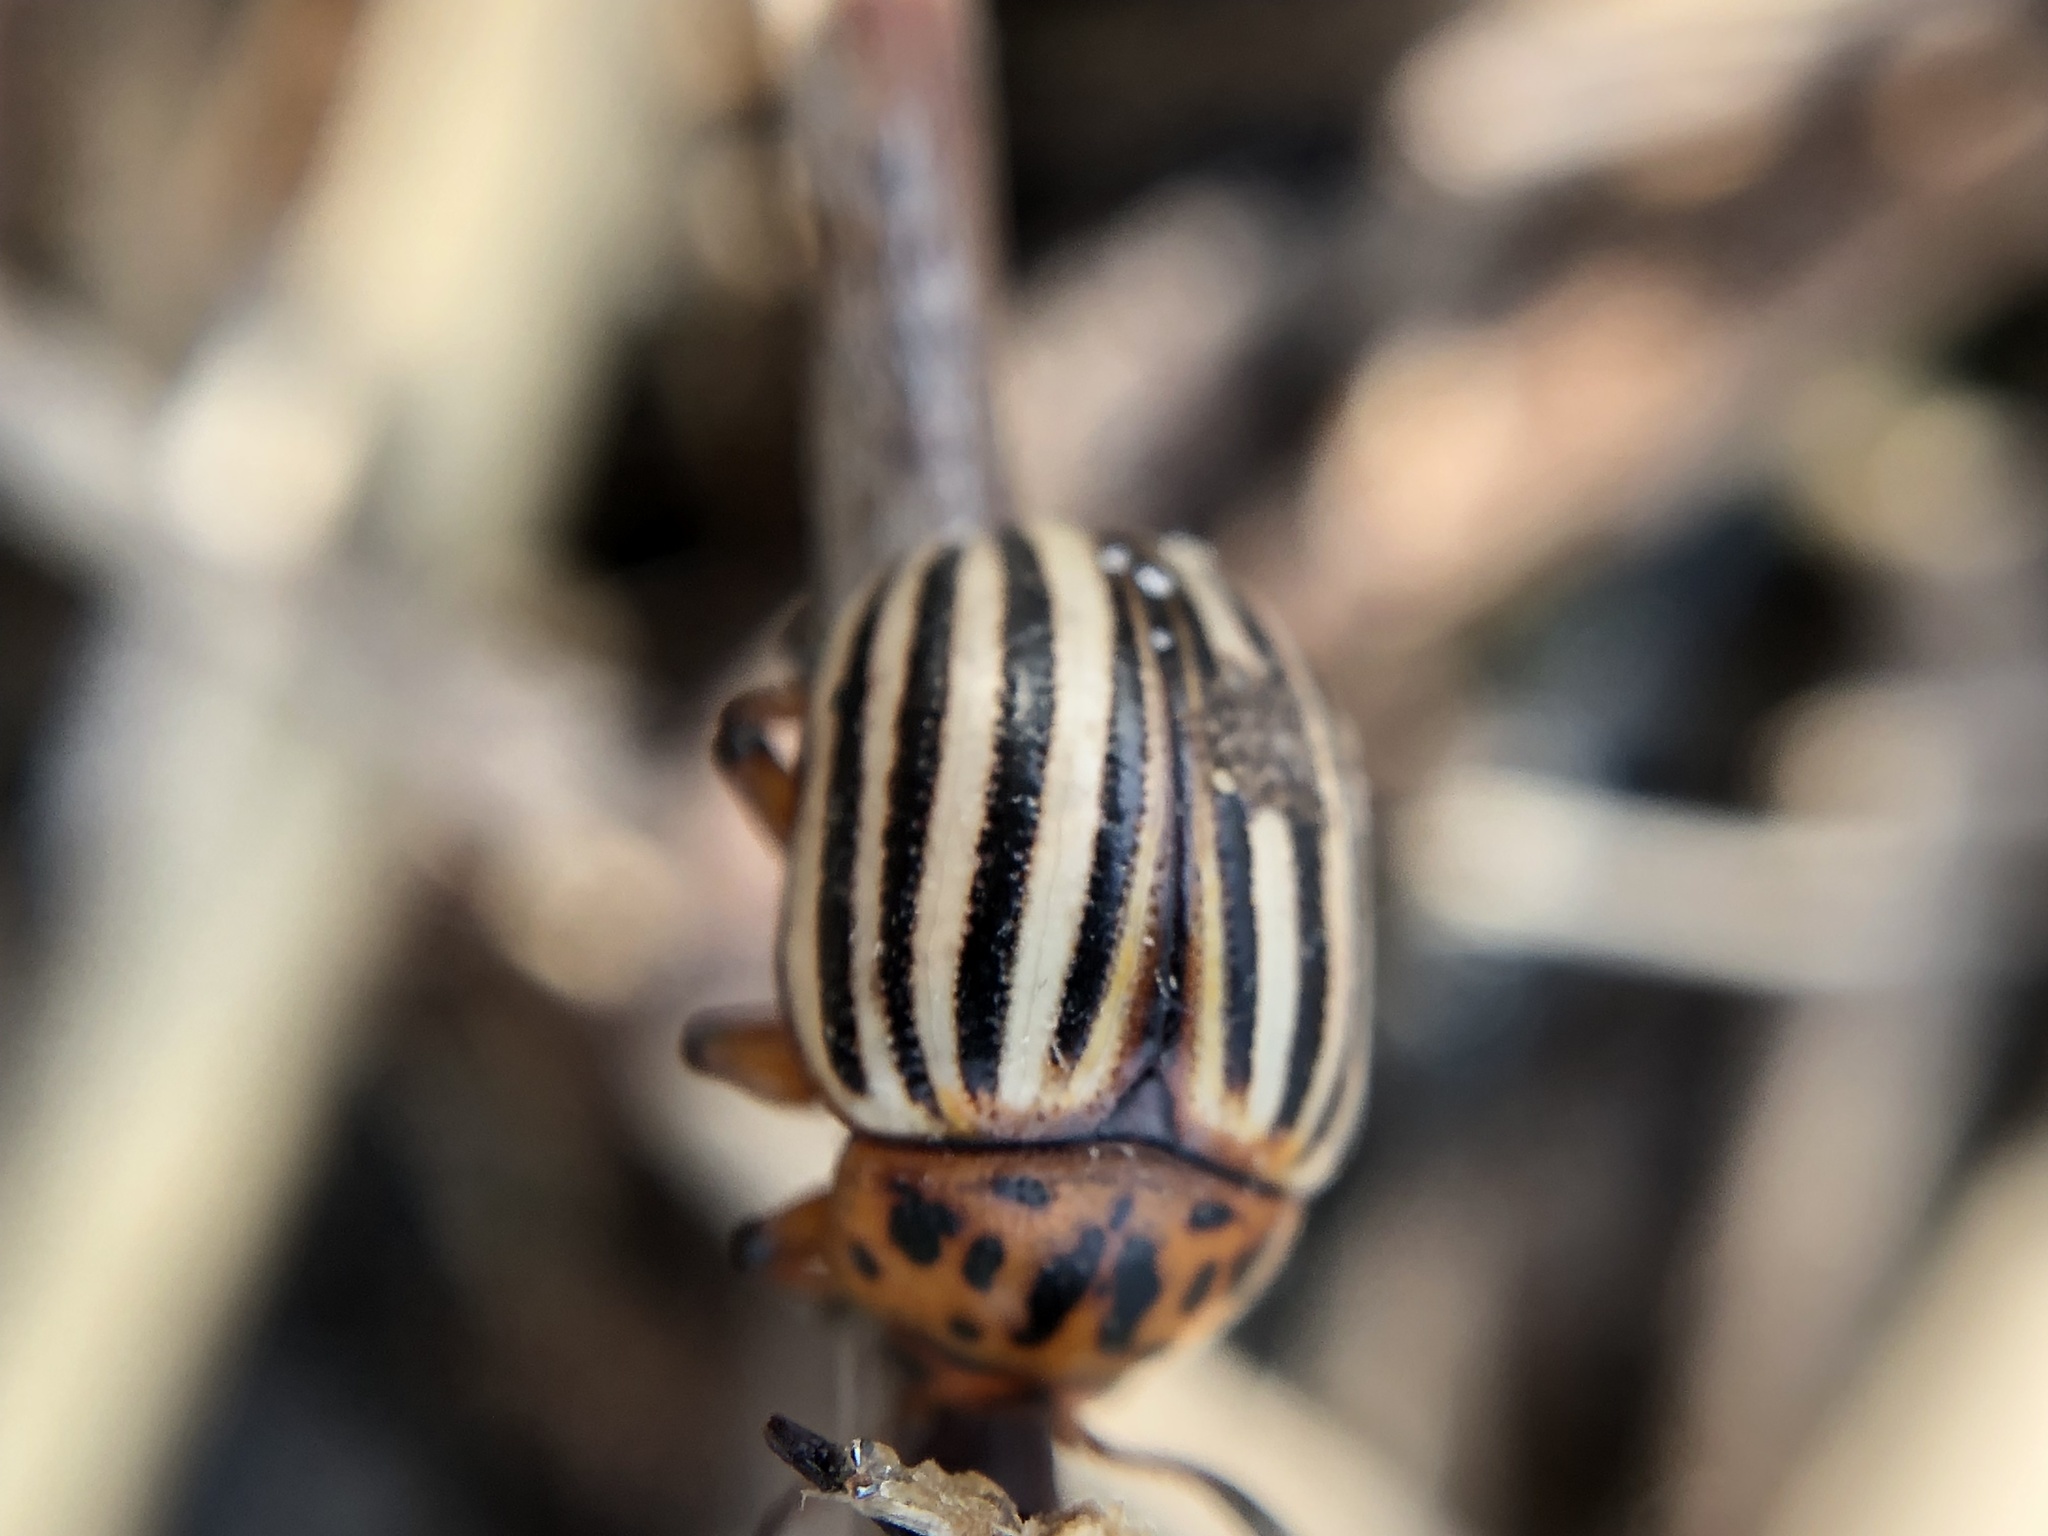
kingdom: Animalia
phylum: Arthropoda
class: Insecta
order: Coleoptera
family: Chrysomelidae
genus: Leptinotarsa
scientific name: Leptinotarsa decemlineata
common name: Colorado potato beetle
